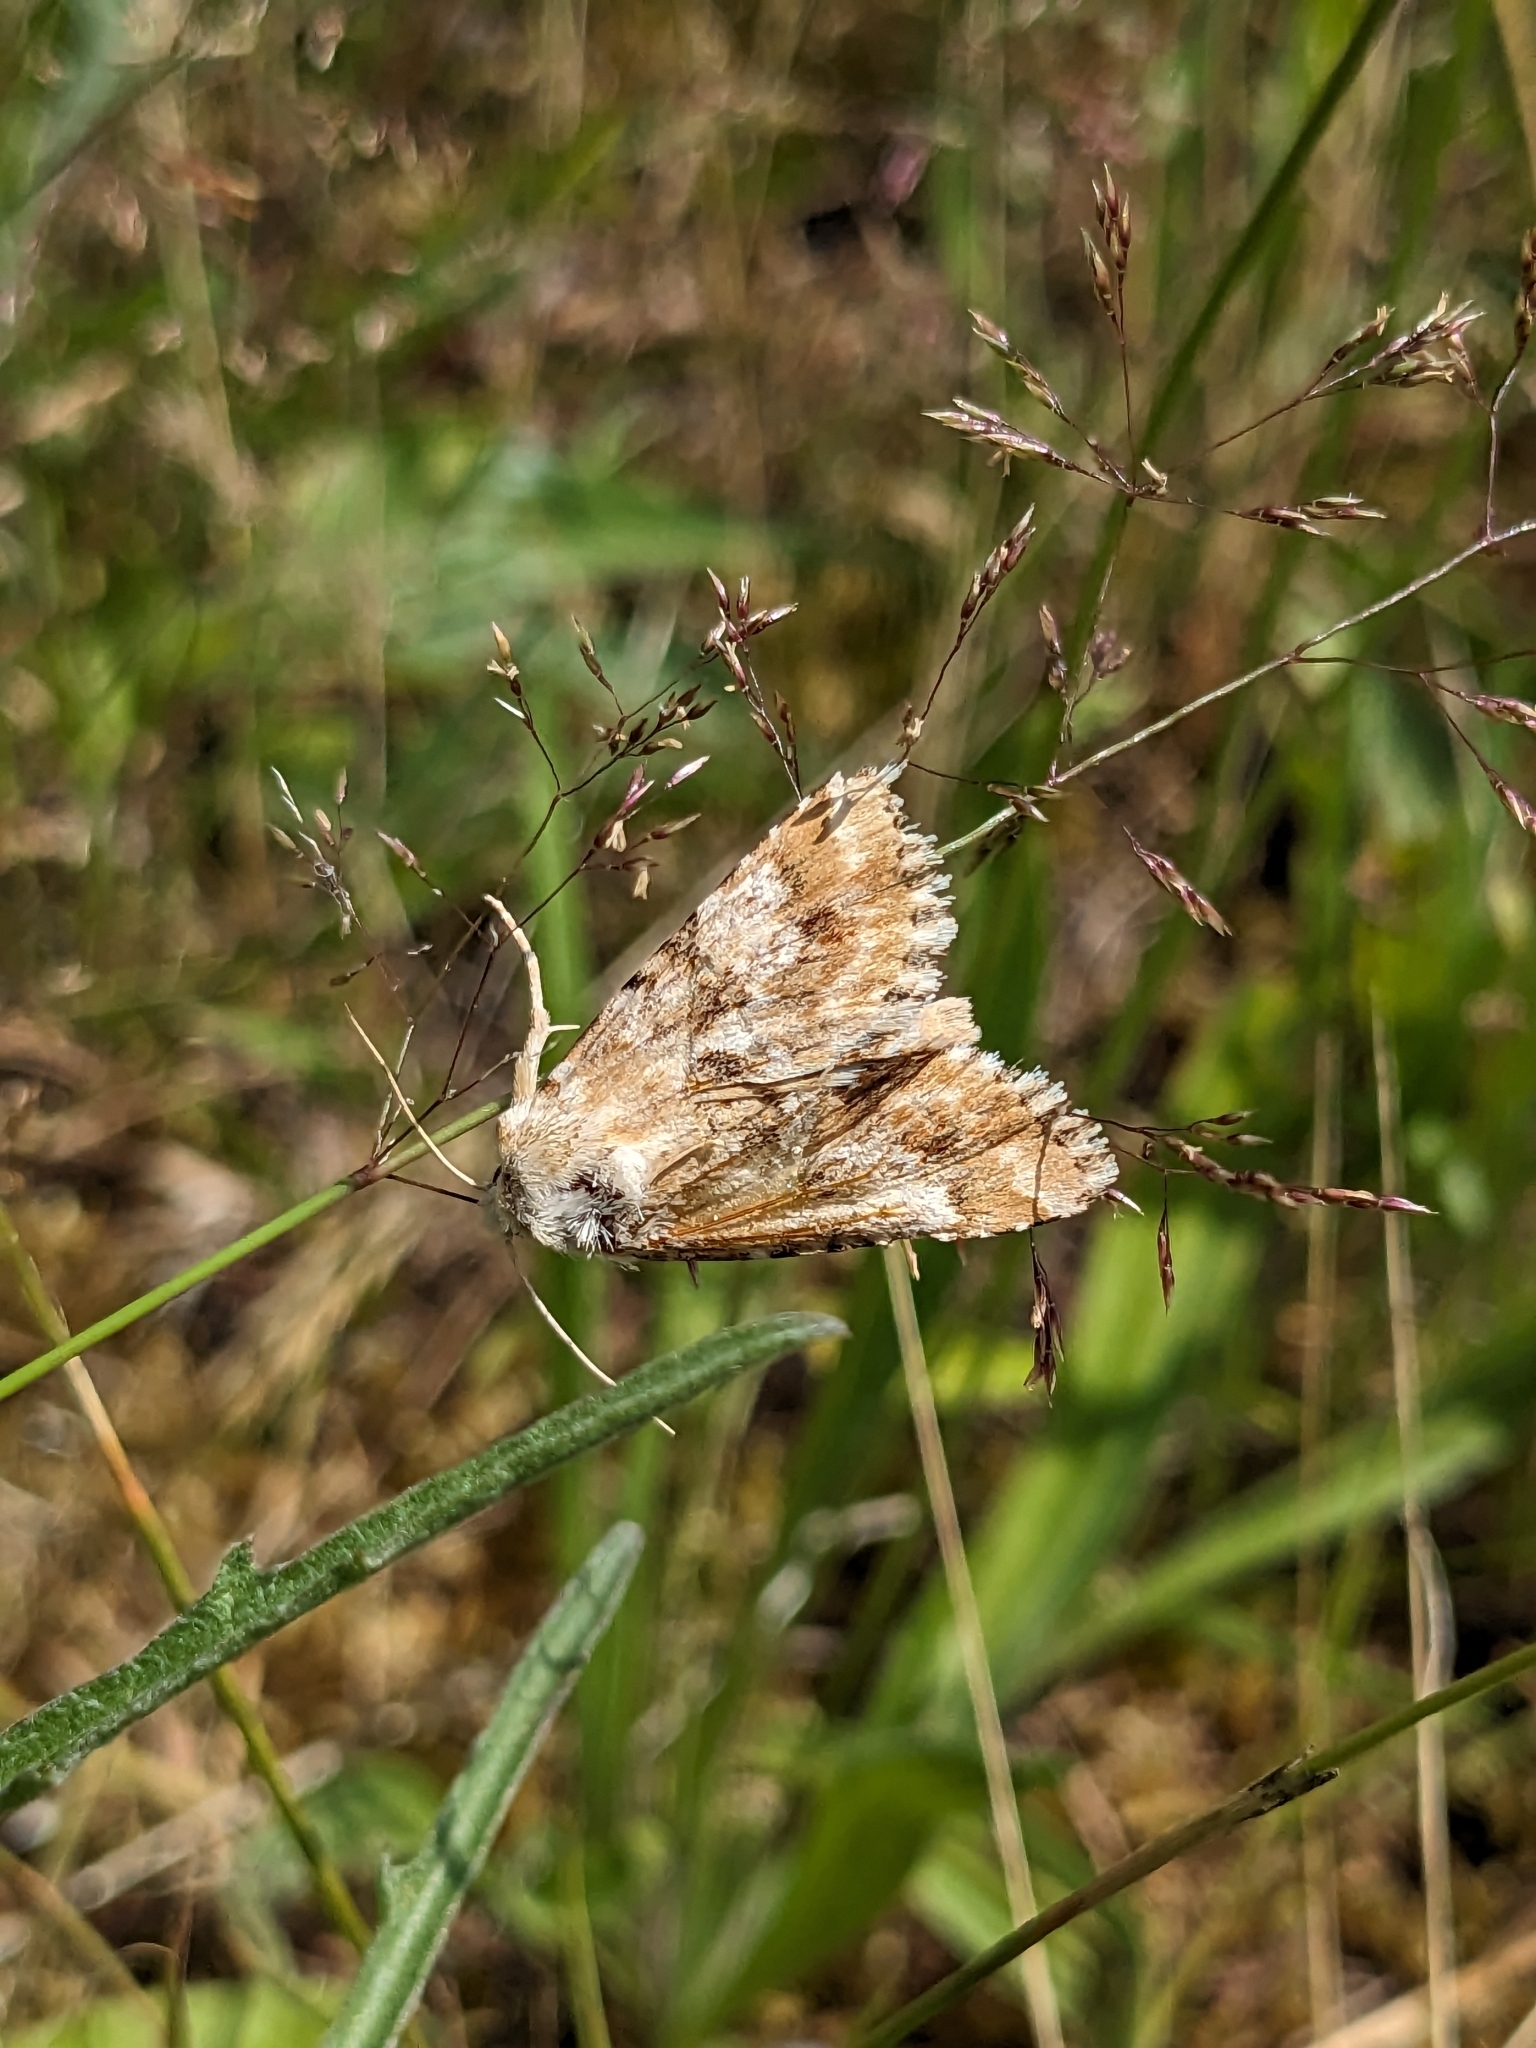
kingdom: Animalia
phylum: Arthropoda
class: Insecta
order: Lepidoptera
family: Noctuidae
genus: Eremobia
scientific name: Eremobia ochroleuca
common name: Dusky sallow
